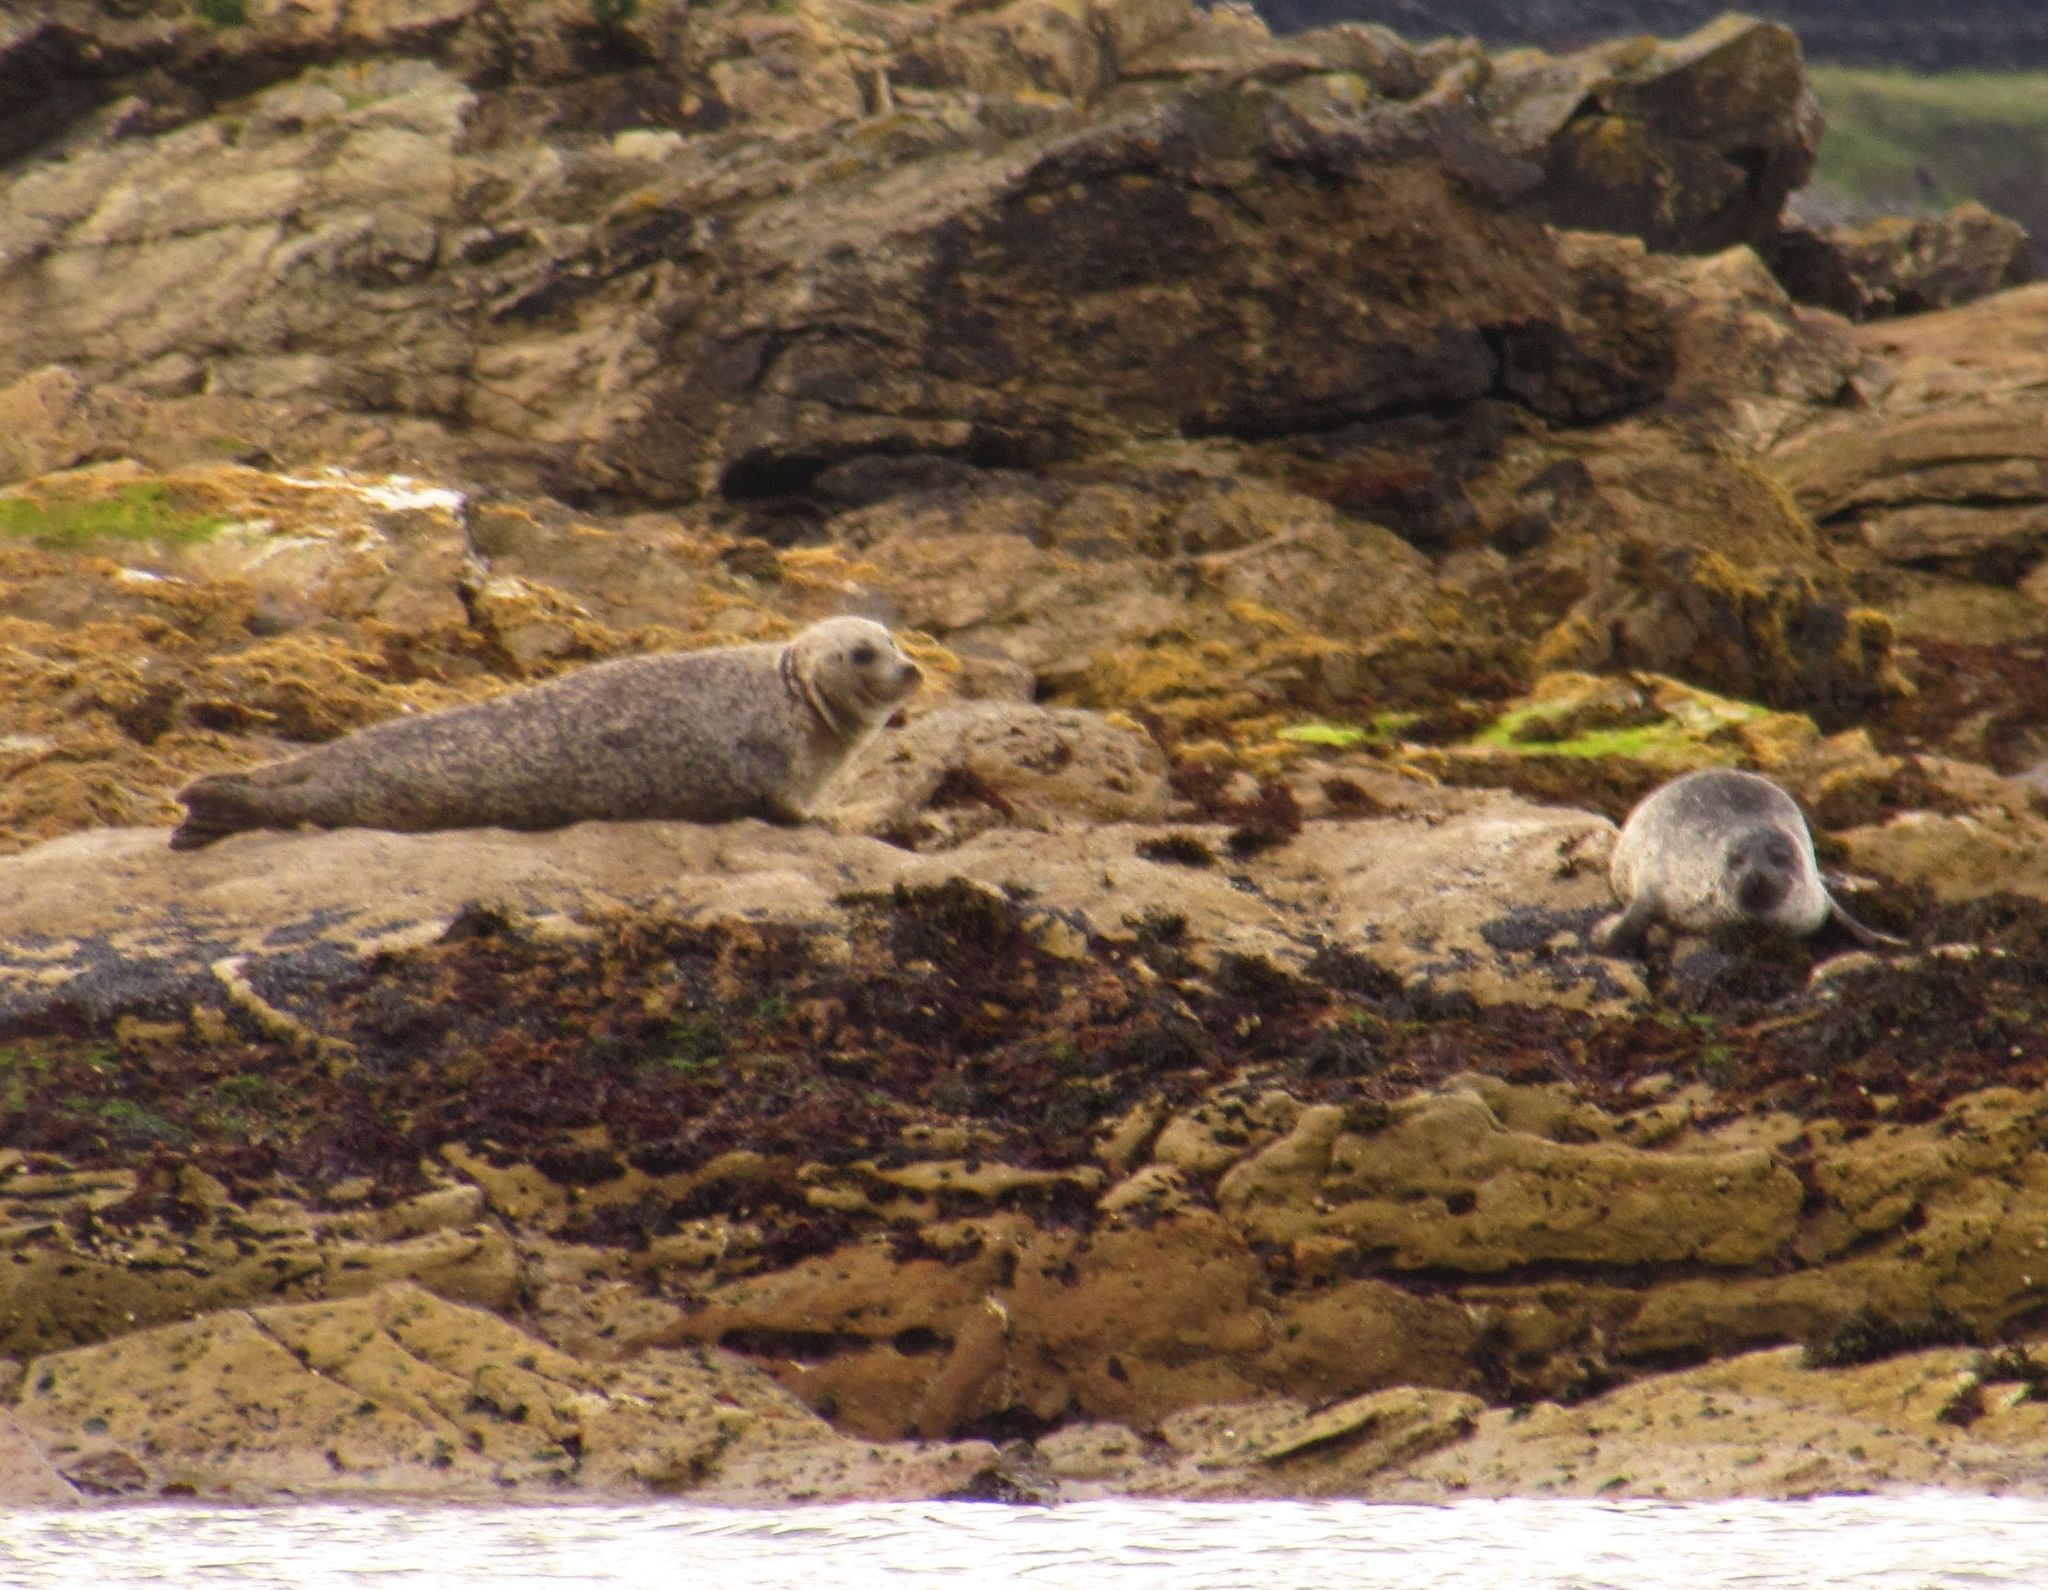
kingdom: Animalia
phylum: Chordata
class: Mammalia
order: Carnivora
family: Phocidae
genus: Phoca
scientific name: Phoca vitulina
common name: Harbor seal
